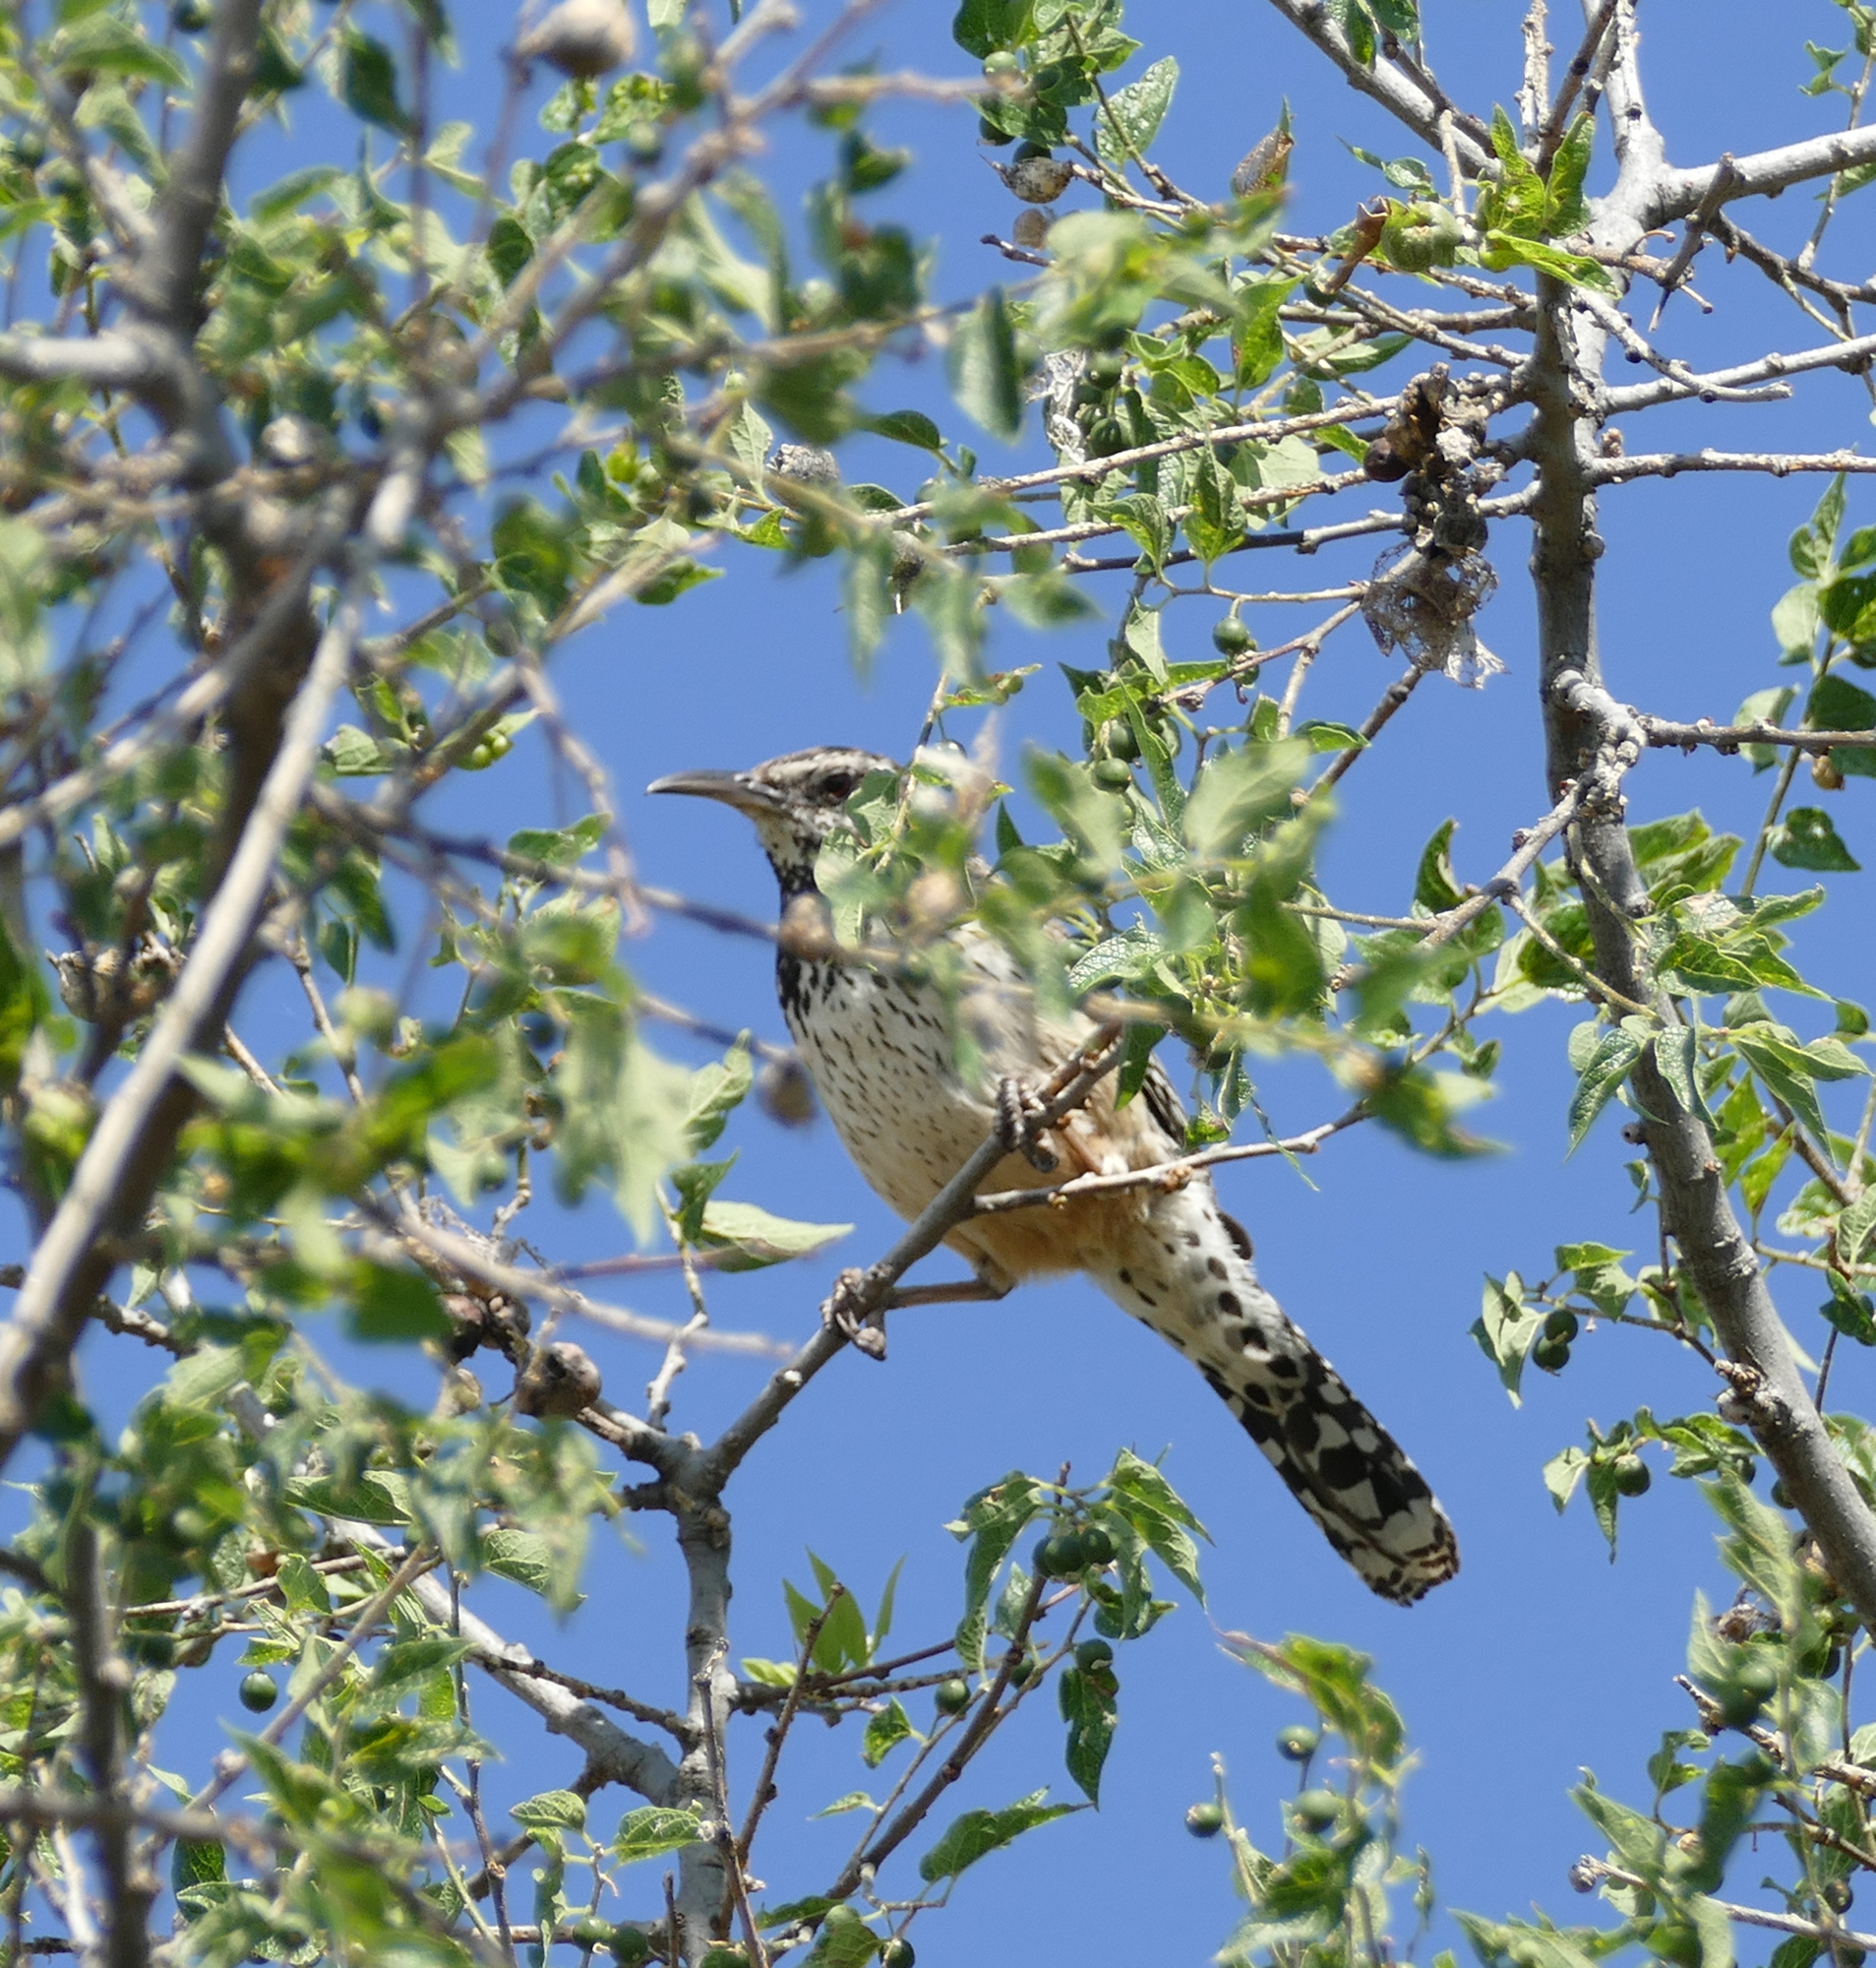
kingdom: Animalia
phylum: Chordata
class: Aves
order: Passeriformes
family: Troglodytidae
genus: Campylorhynchus
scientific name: Campylorhynchus brunneicapillus
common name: Cactus wren
